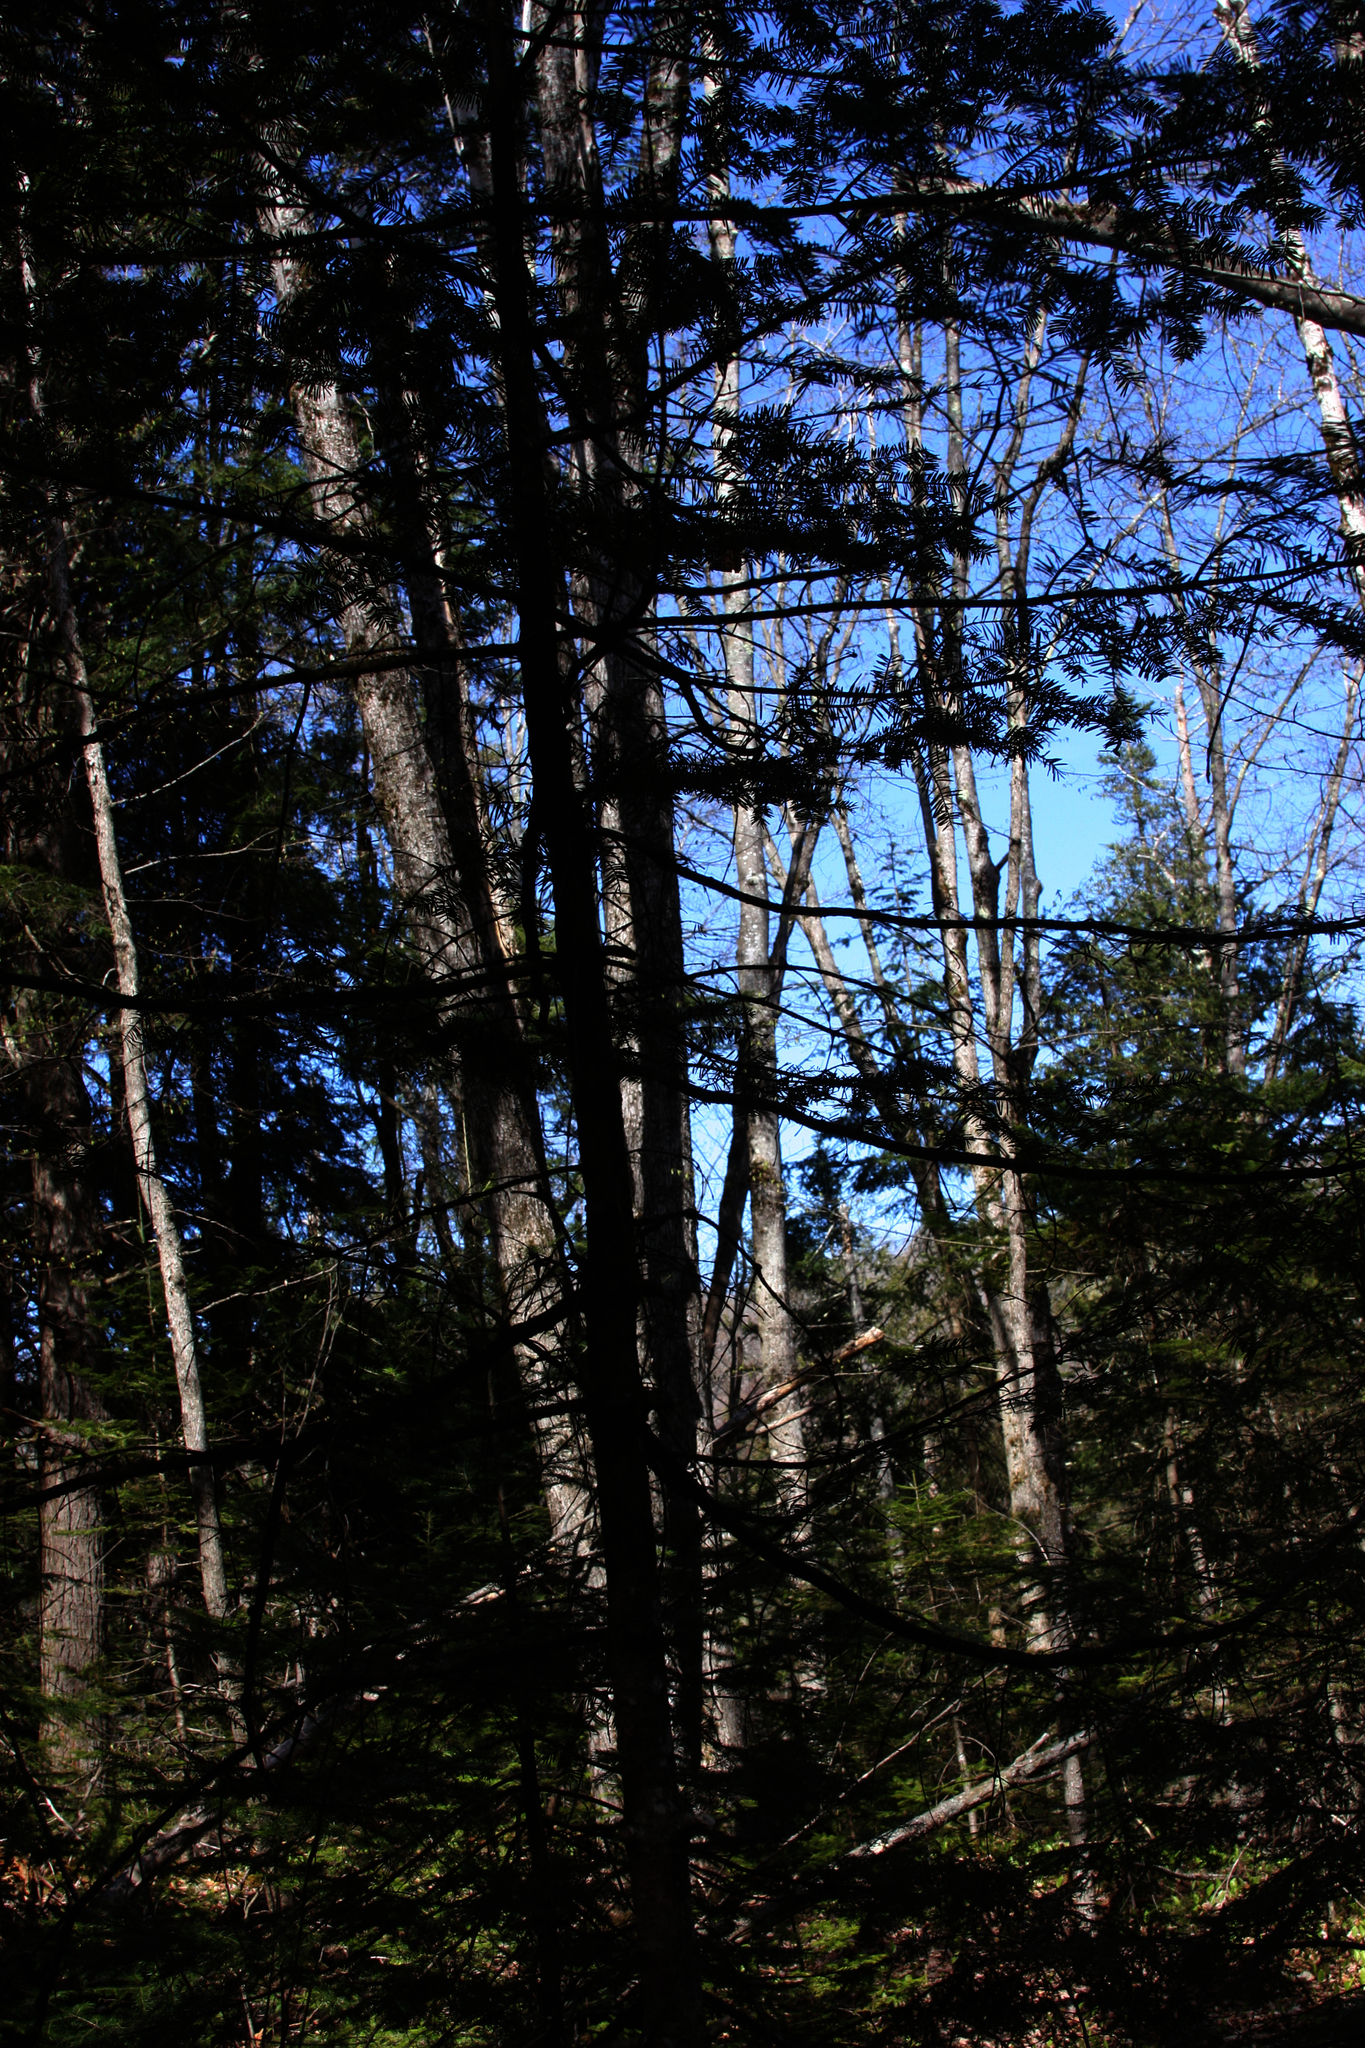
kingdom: Plantae
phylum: Tracheophyta
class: Pinopsida
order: Pinales
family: Pinaceae
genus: Abies
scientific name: Abies balsamea
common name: Balsam fir
